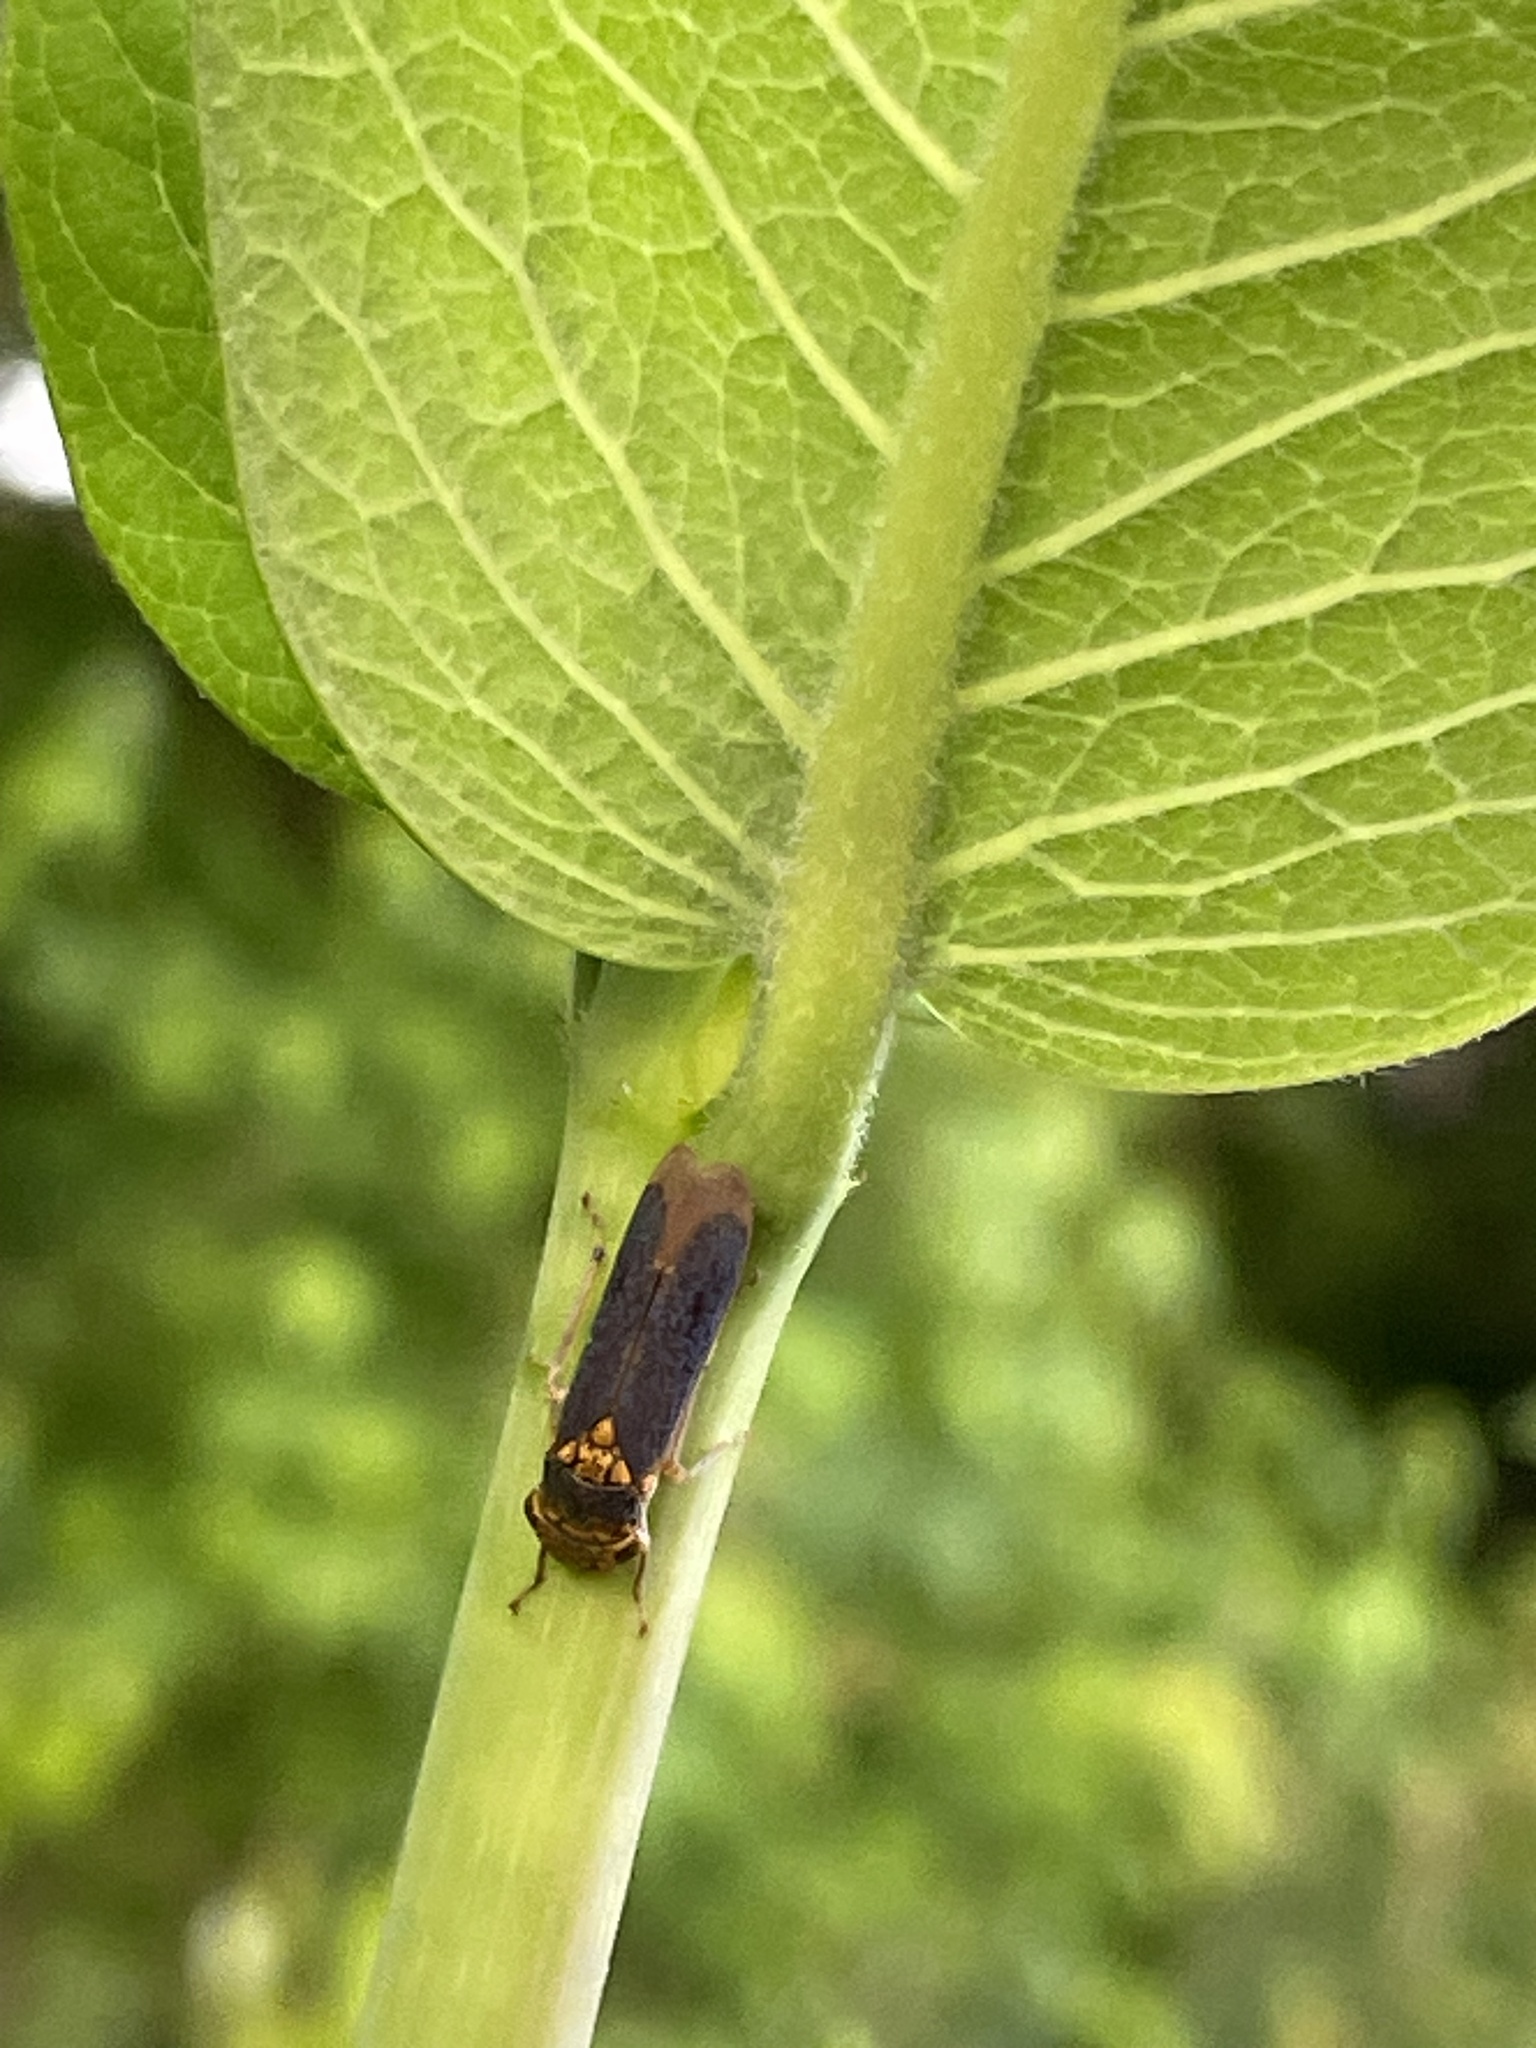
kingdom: Animalia
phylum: Arthropoda
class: Insecta
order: Hemiptera
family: Cicadellidae
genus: Oncometopia
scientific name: Oncometopia orbona
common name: Broad-headed sharpshooter
